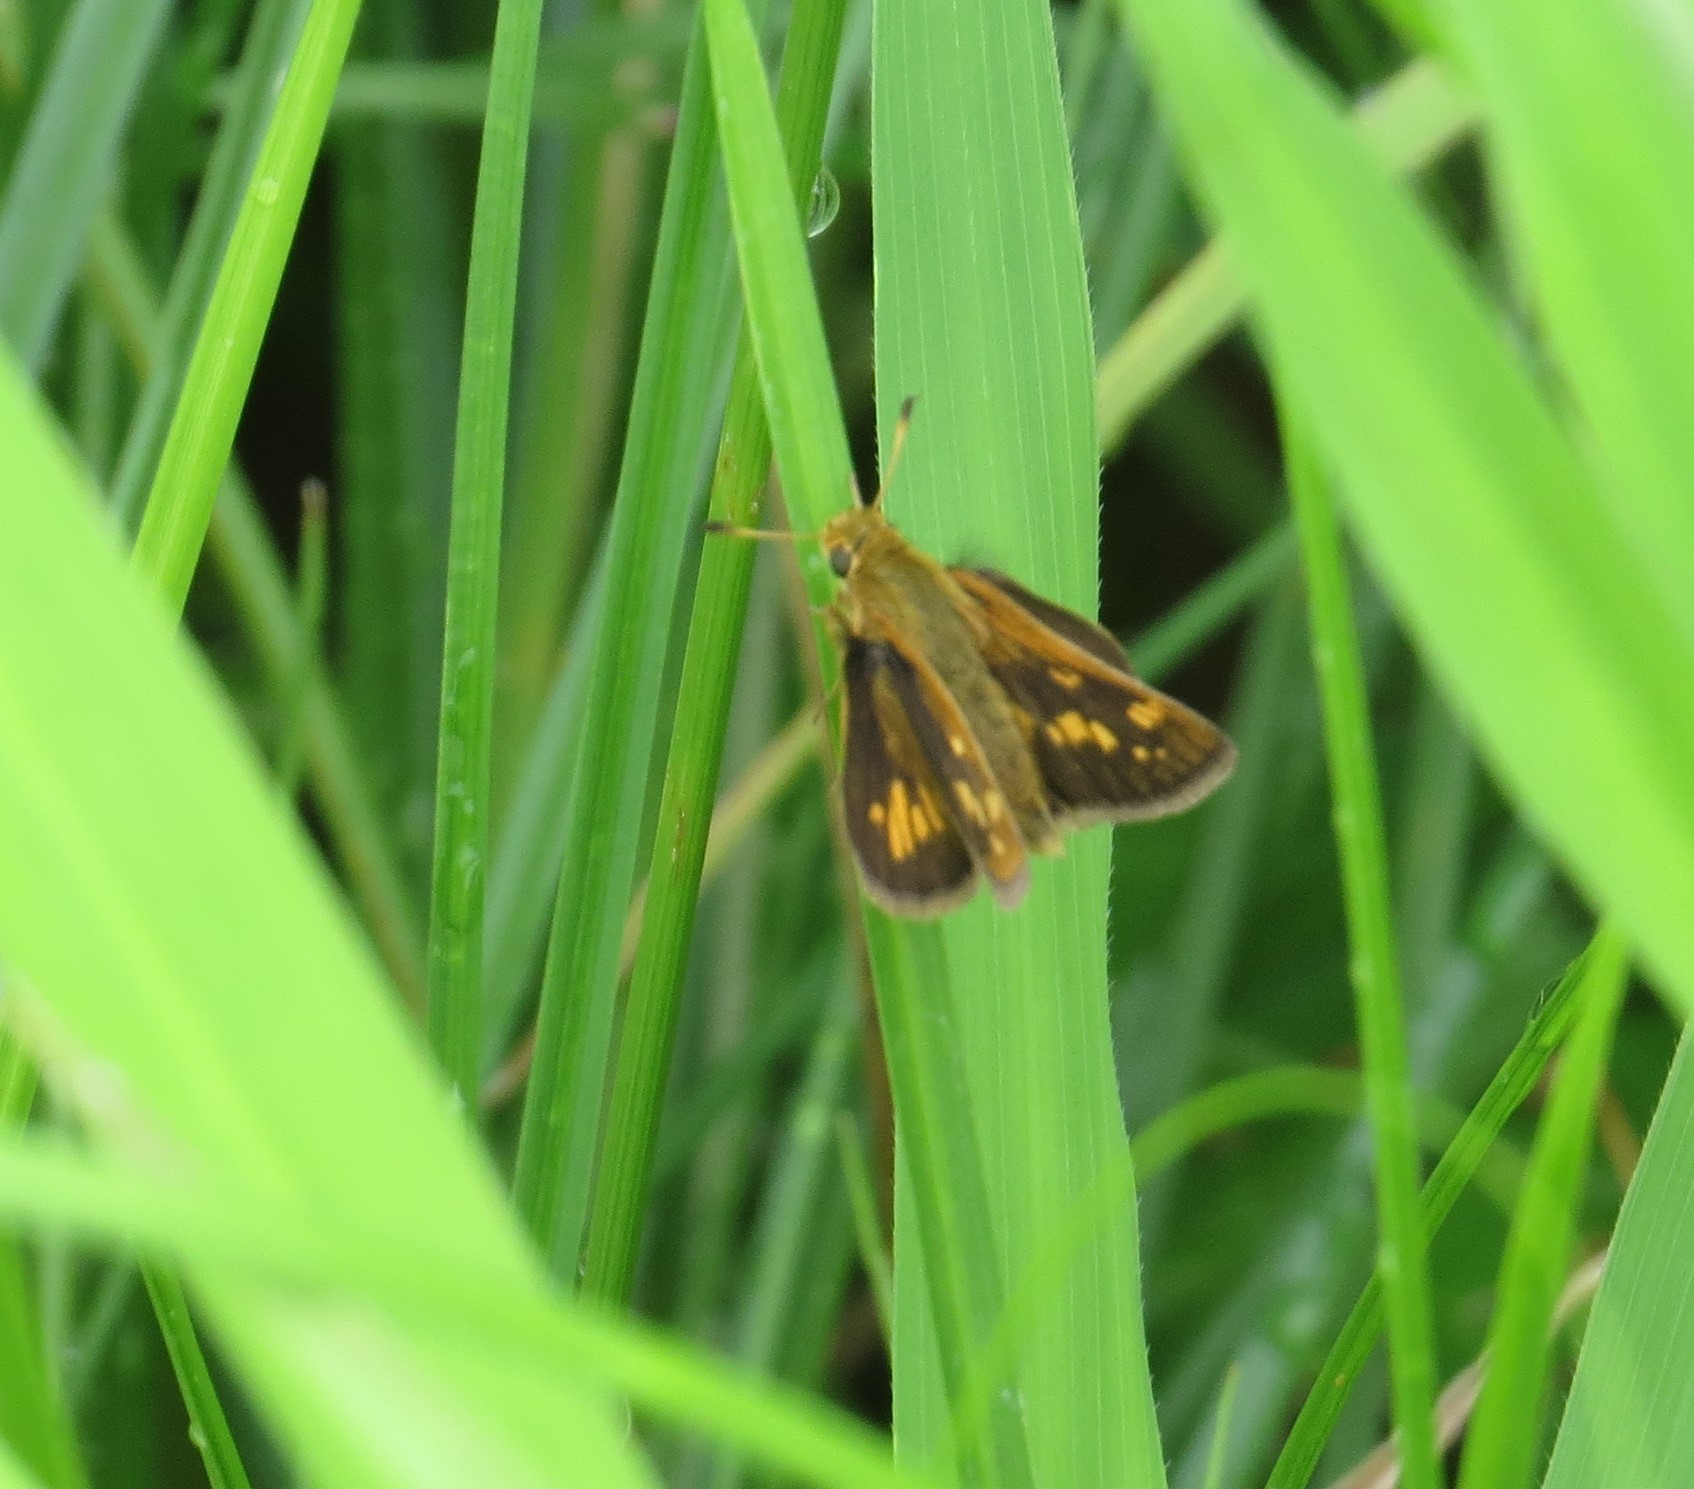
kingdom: Animalia
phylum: Arthropoda
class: Insecta
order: Lepidoptera
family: Hesperiidae
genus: Polites
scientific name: Polites coras
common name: Peck's skipper
